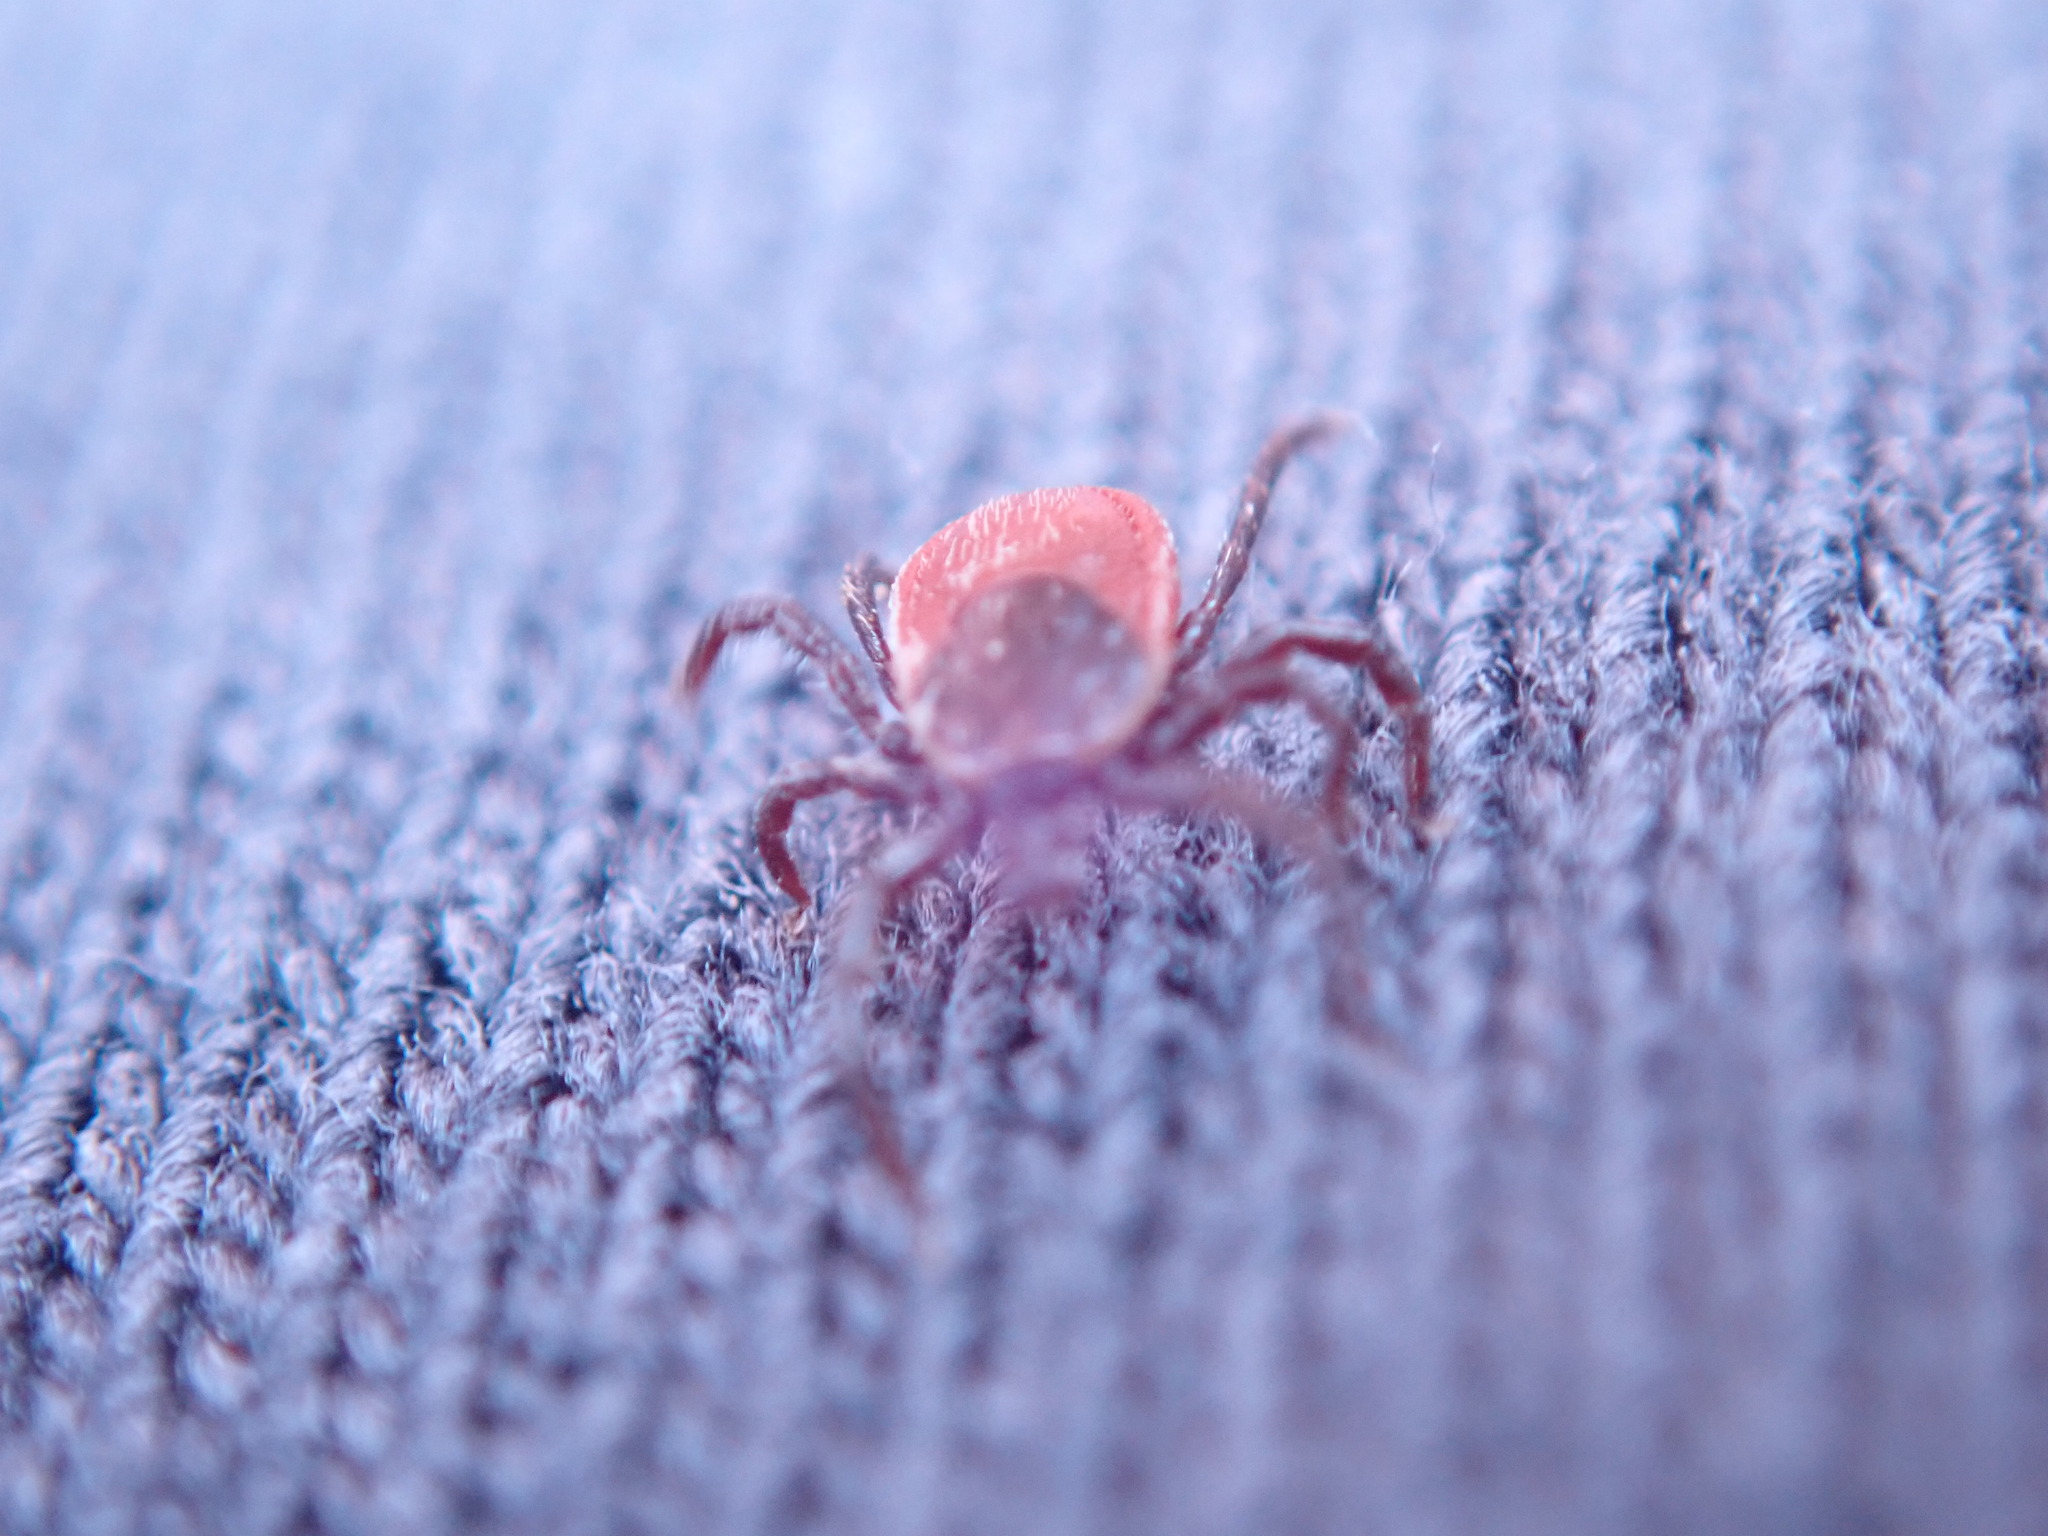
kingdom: Animalia
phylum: Arthropoda
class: Arachnida
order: Ixodida
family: Ixodidae
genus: Ixodes
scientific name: Ixodes pacificus
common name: California black-legged tick
